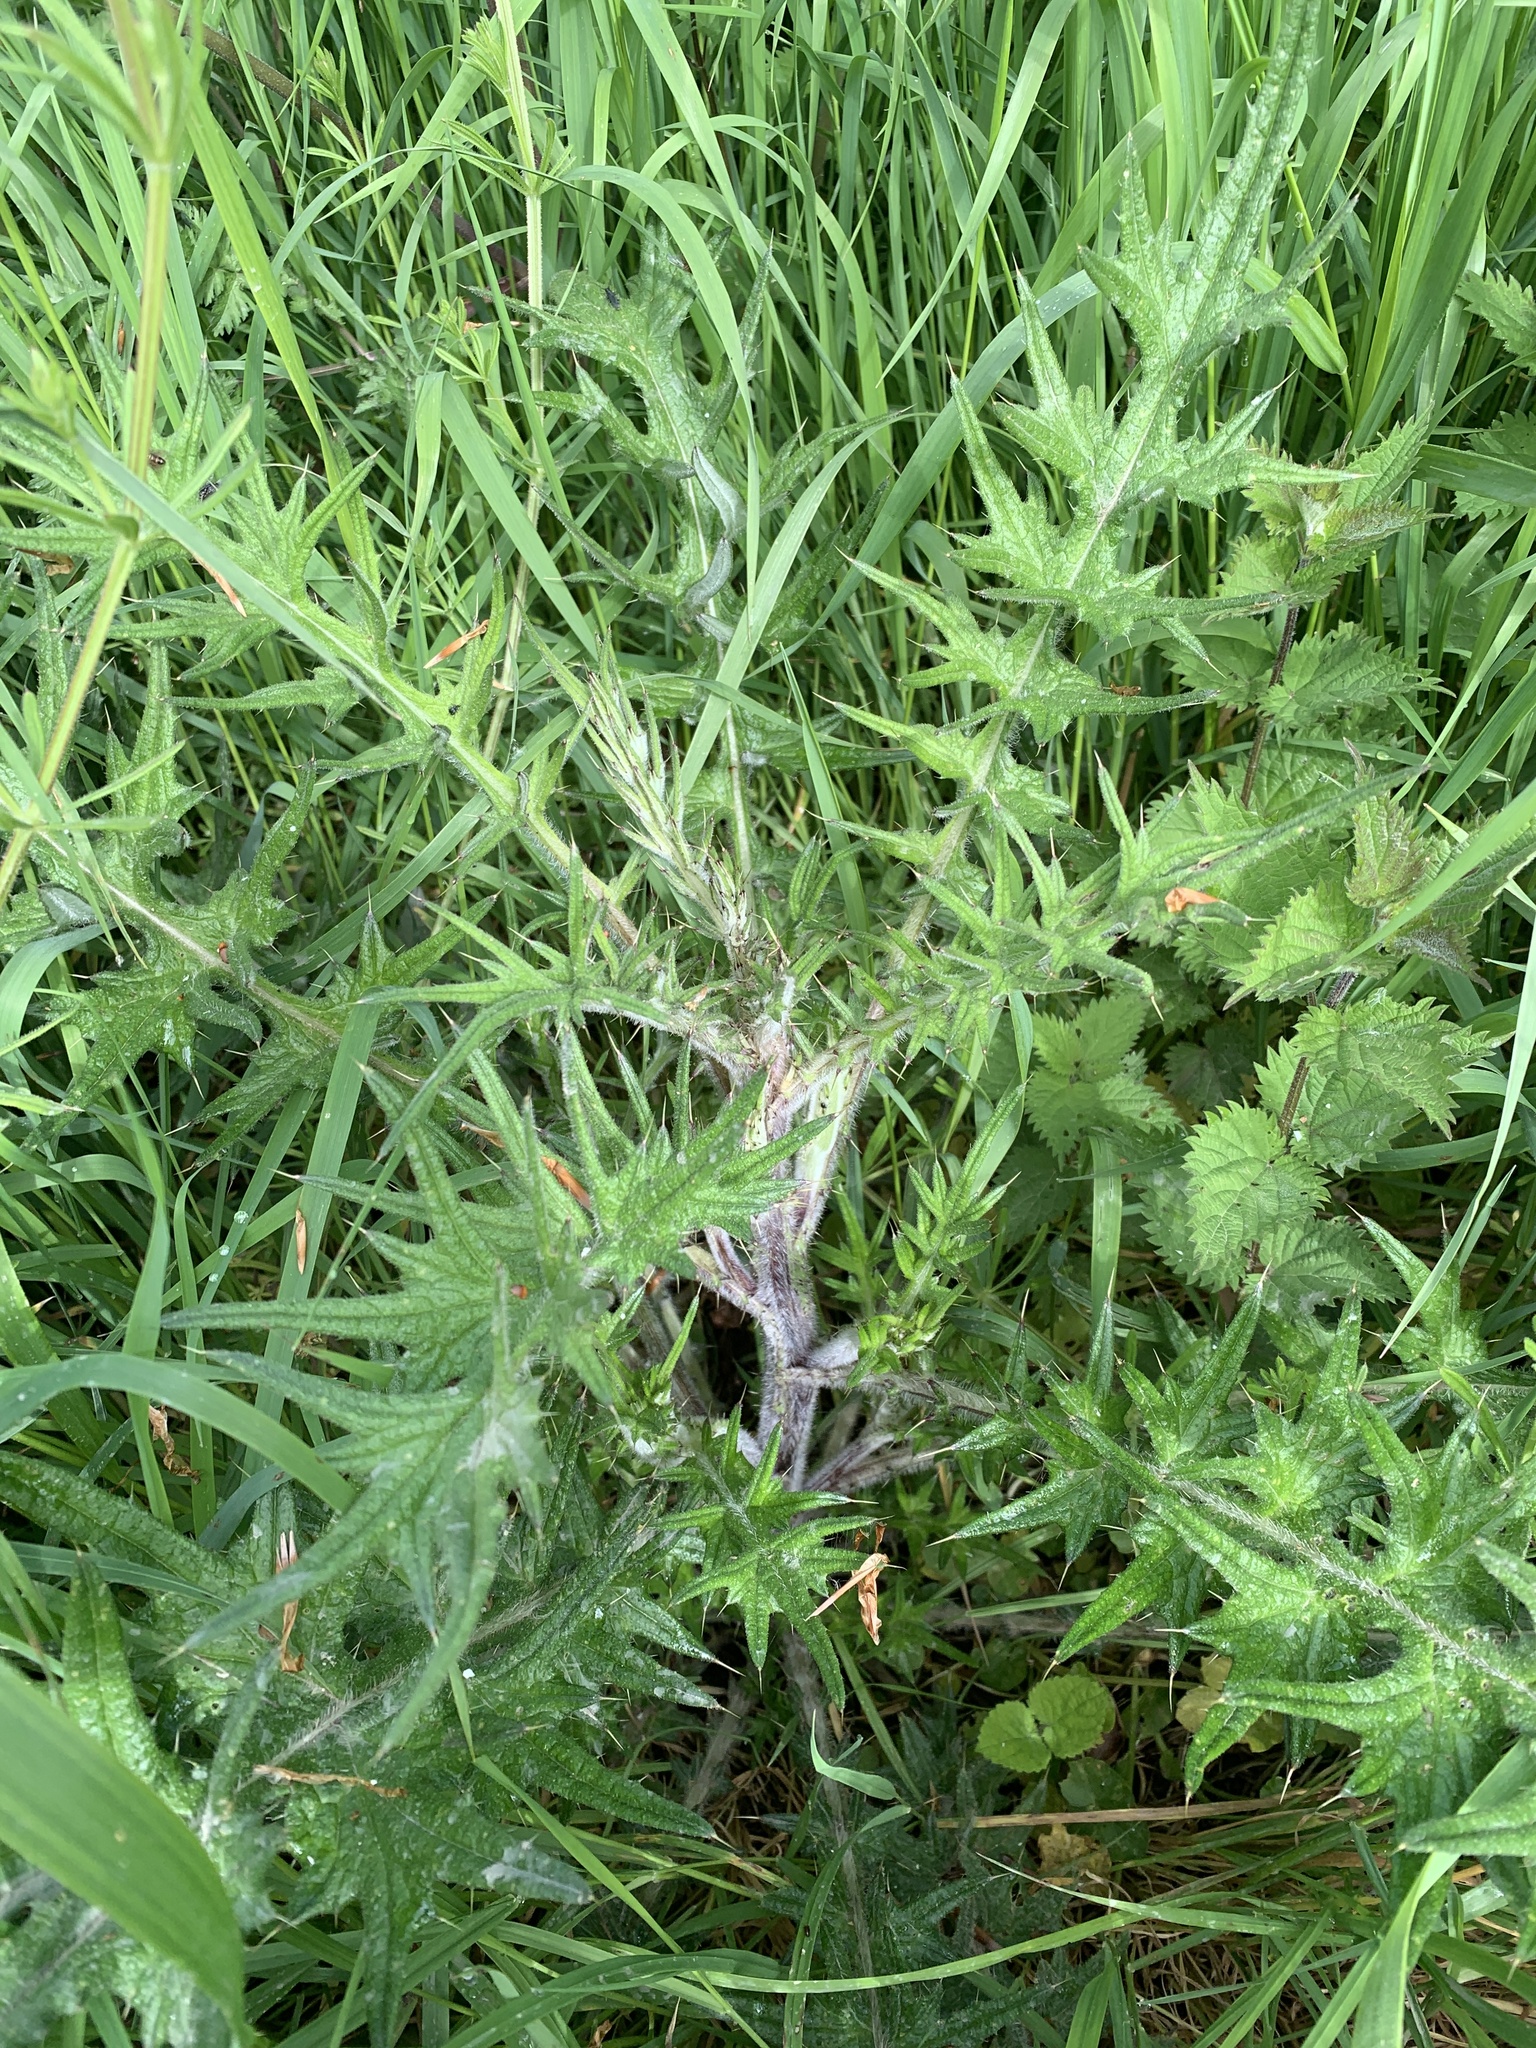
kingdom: Plantae
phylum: Tracheophyta
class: Magnoliopsida
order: Asterales
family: Asteraceae
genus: Cirsium
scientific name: Cirsium vulgare
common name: Bull thistle
